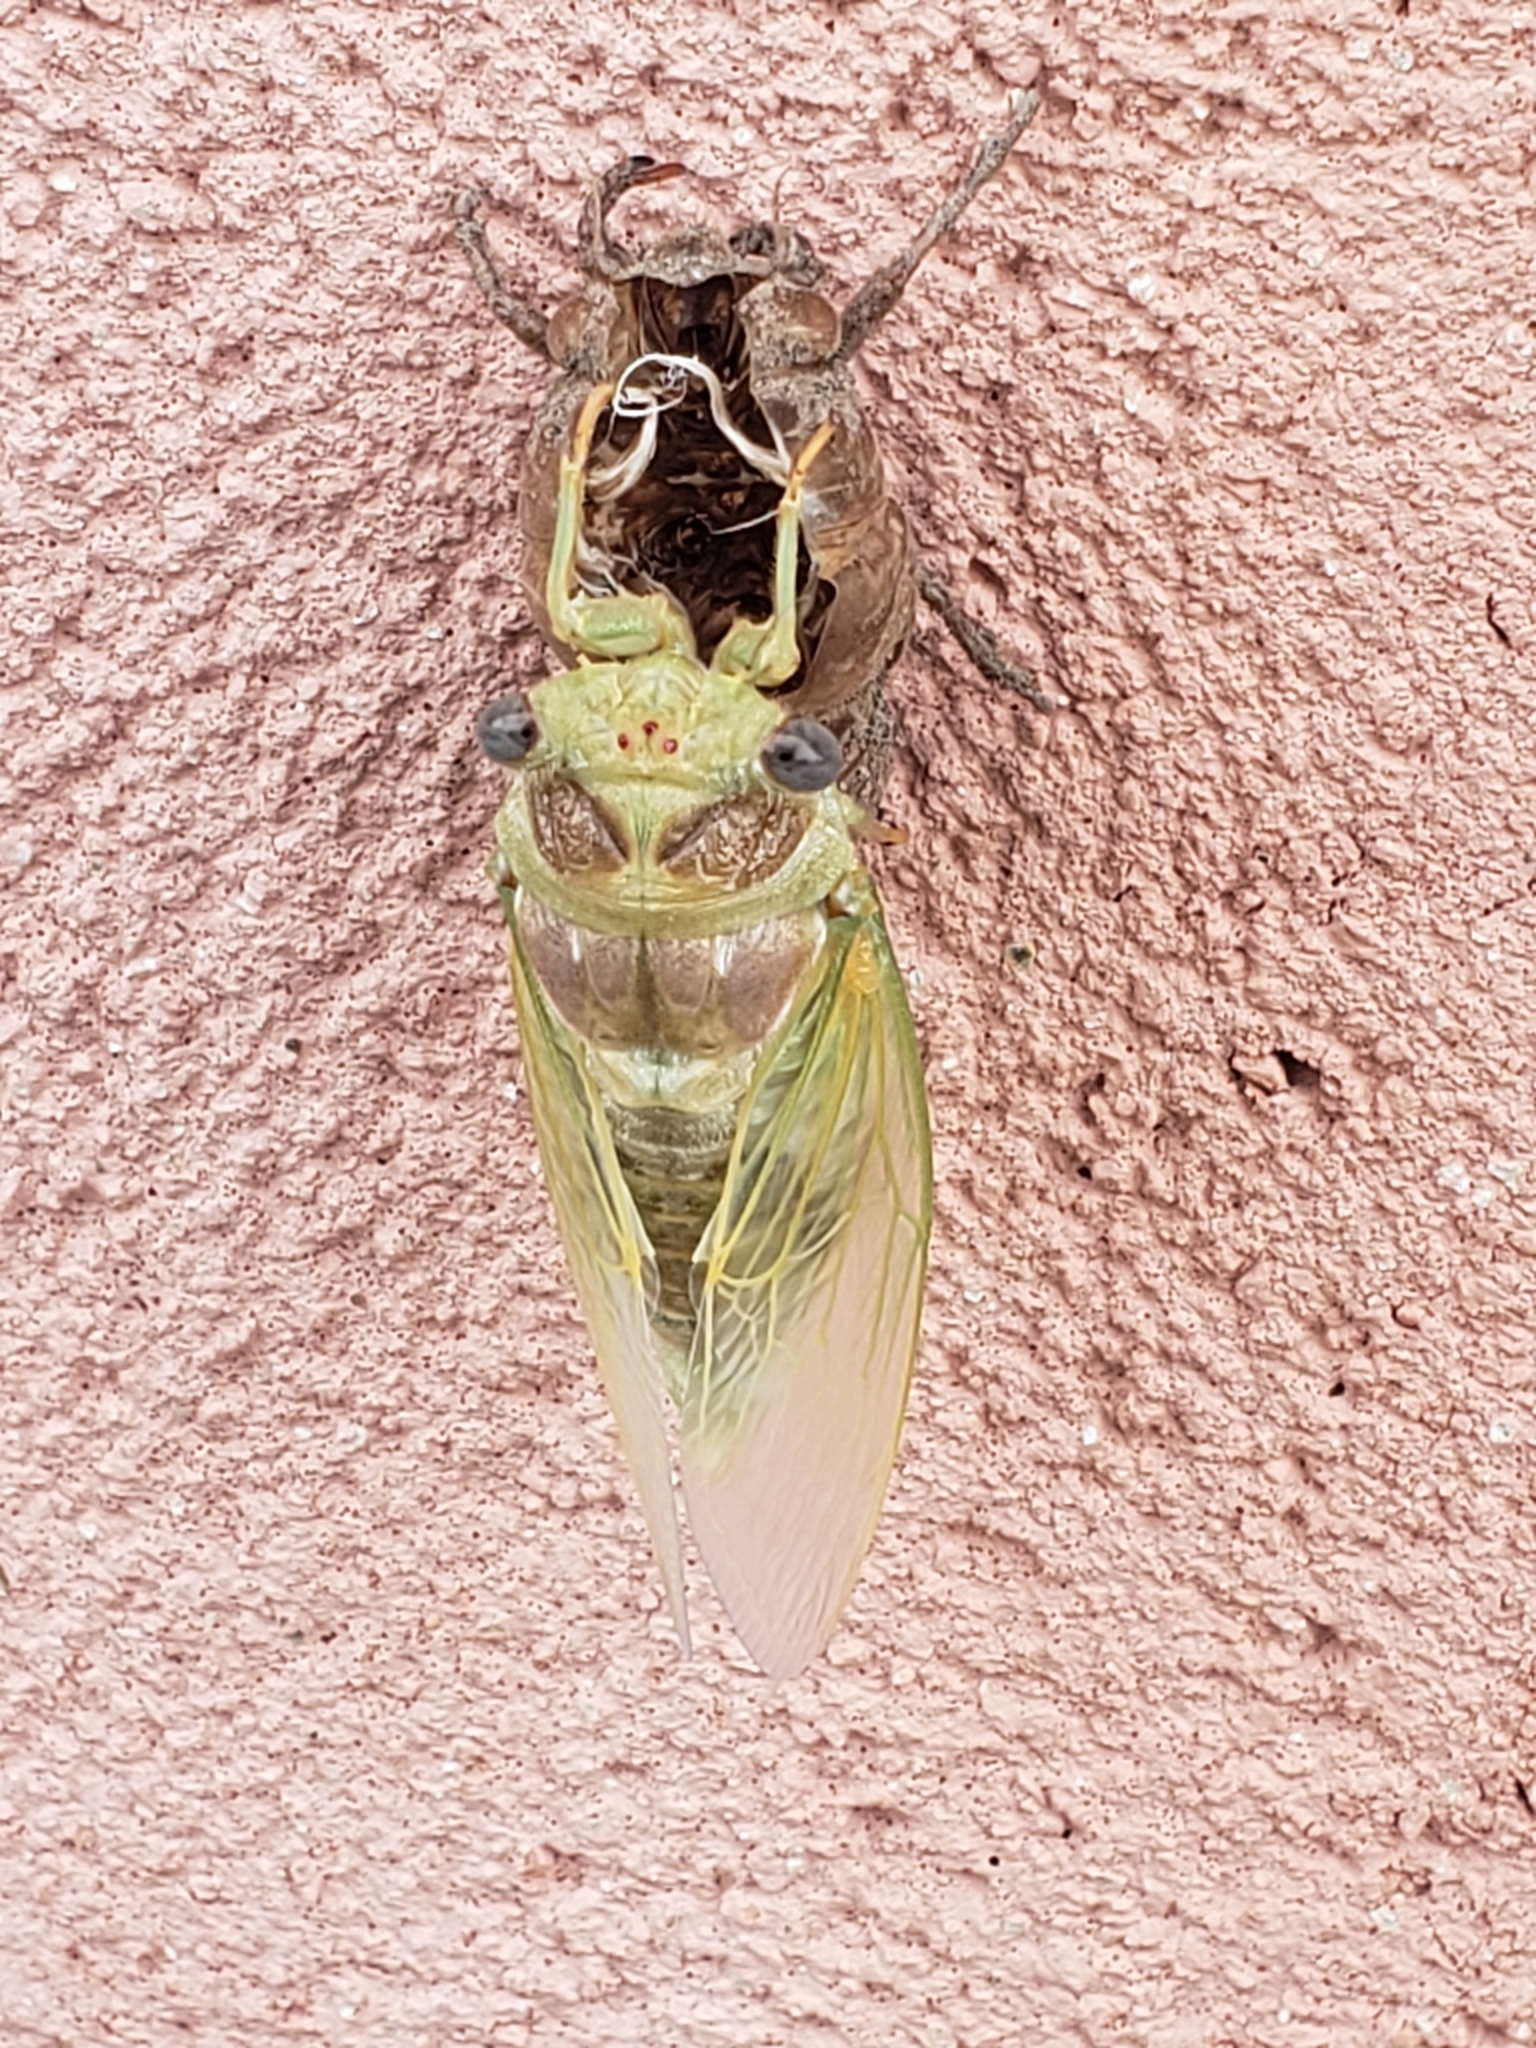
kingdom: Animalia
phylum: Arthropoda
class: Insecta
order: Hemiptera
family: Cicadidae
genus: Lyristes
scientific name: Lyristes plebejus
